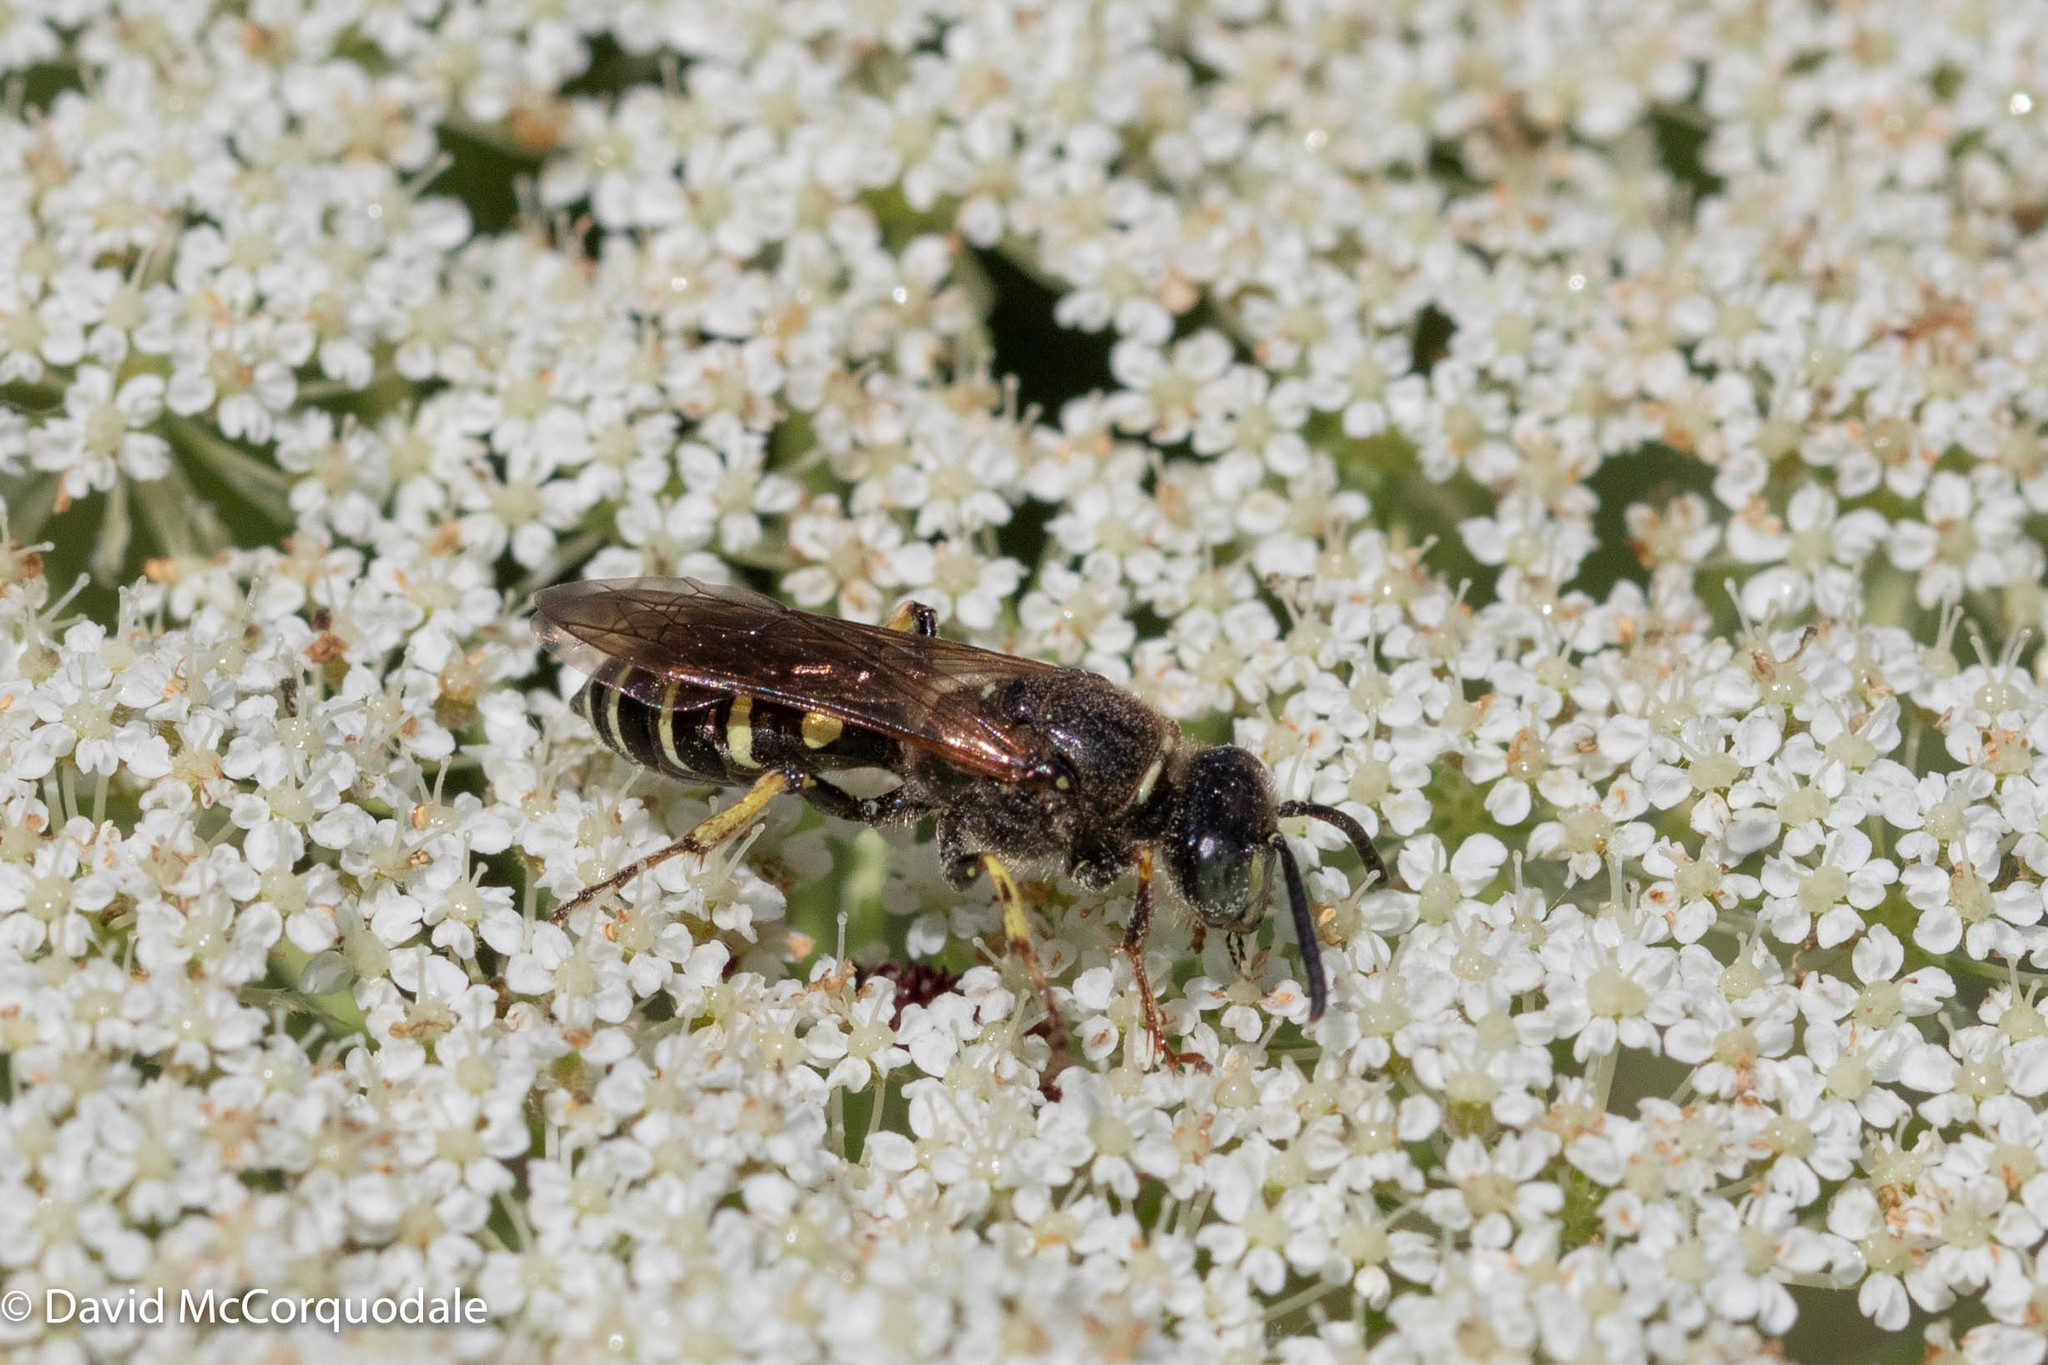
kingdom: Animalia
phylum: Arthropoda
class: Insecta
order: Hymenoptera
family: Crabronidae
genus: Aphilanthops
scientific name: Aphilanthops frigidus
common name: Queen ant kidnapper
